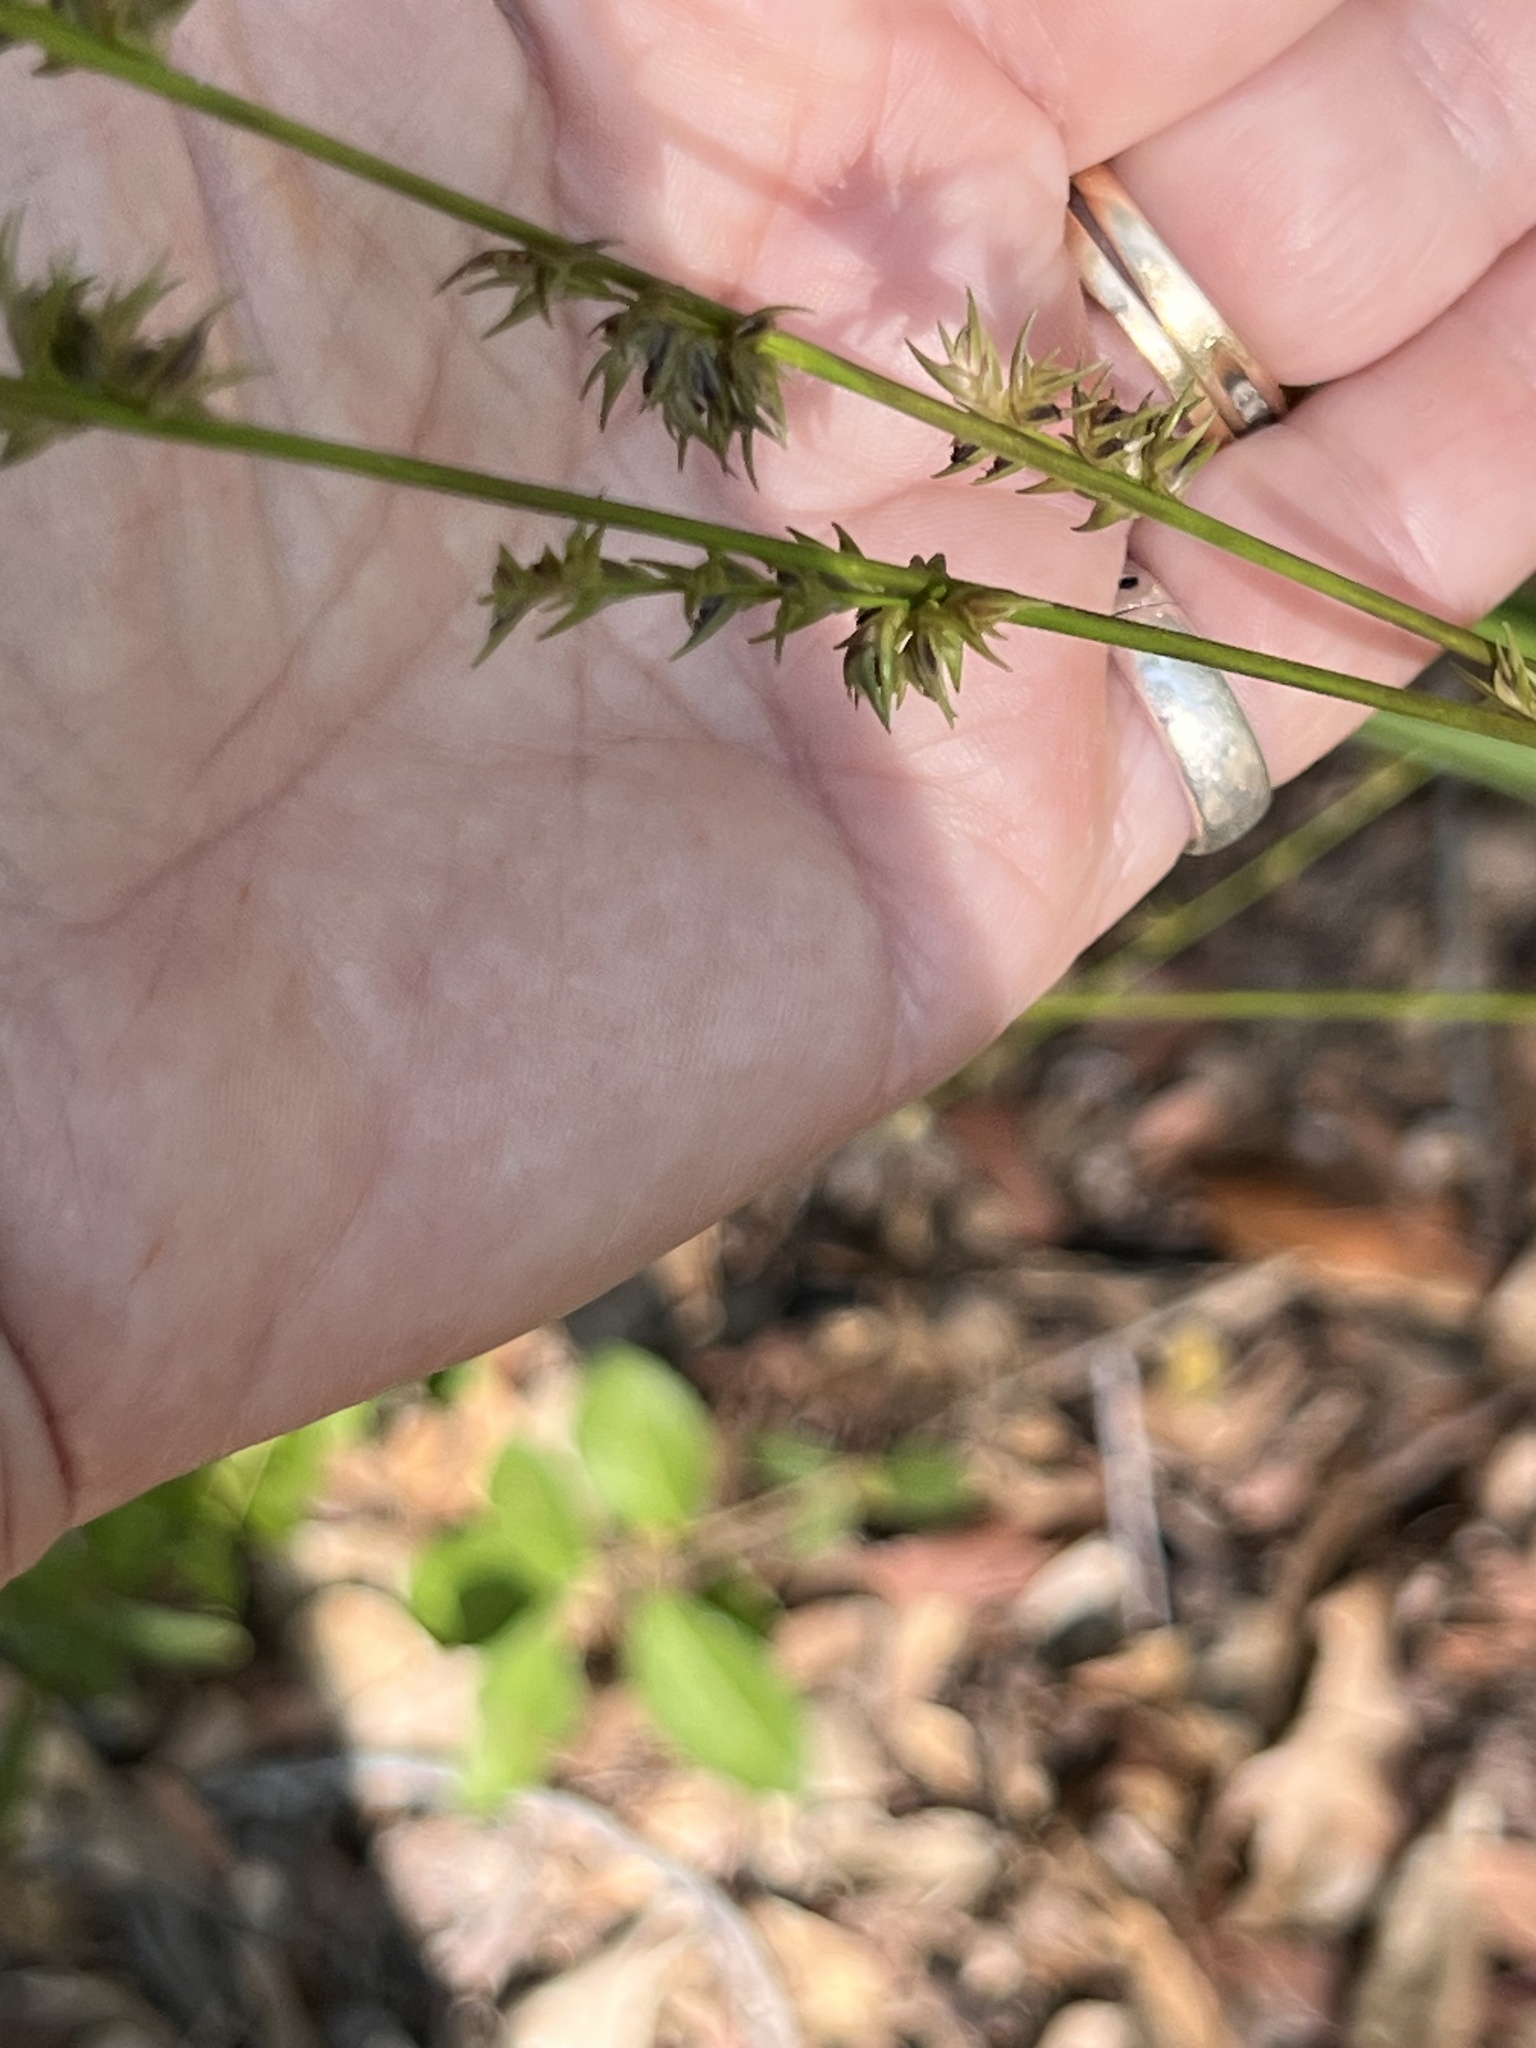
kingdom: Plantae
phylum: Tracheophyta
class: Liliopsida
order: Poales
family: Poaceae
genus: Chasmanthium
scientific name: Chasmanthium laxum
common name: Slender chasmanthium
